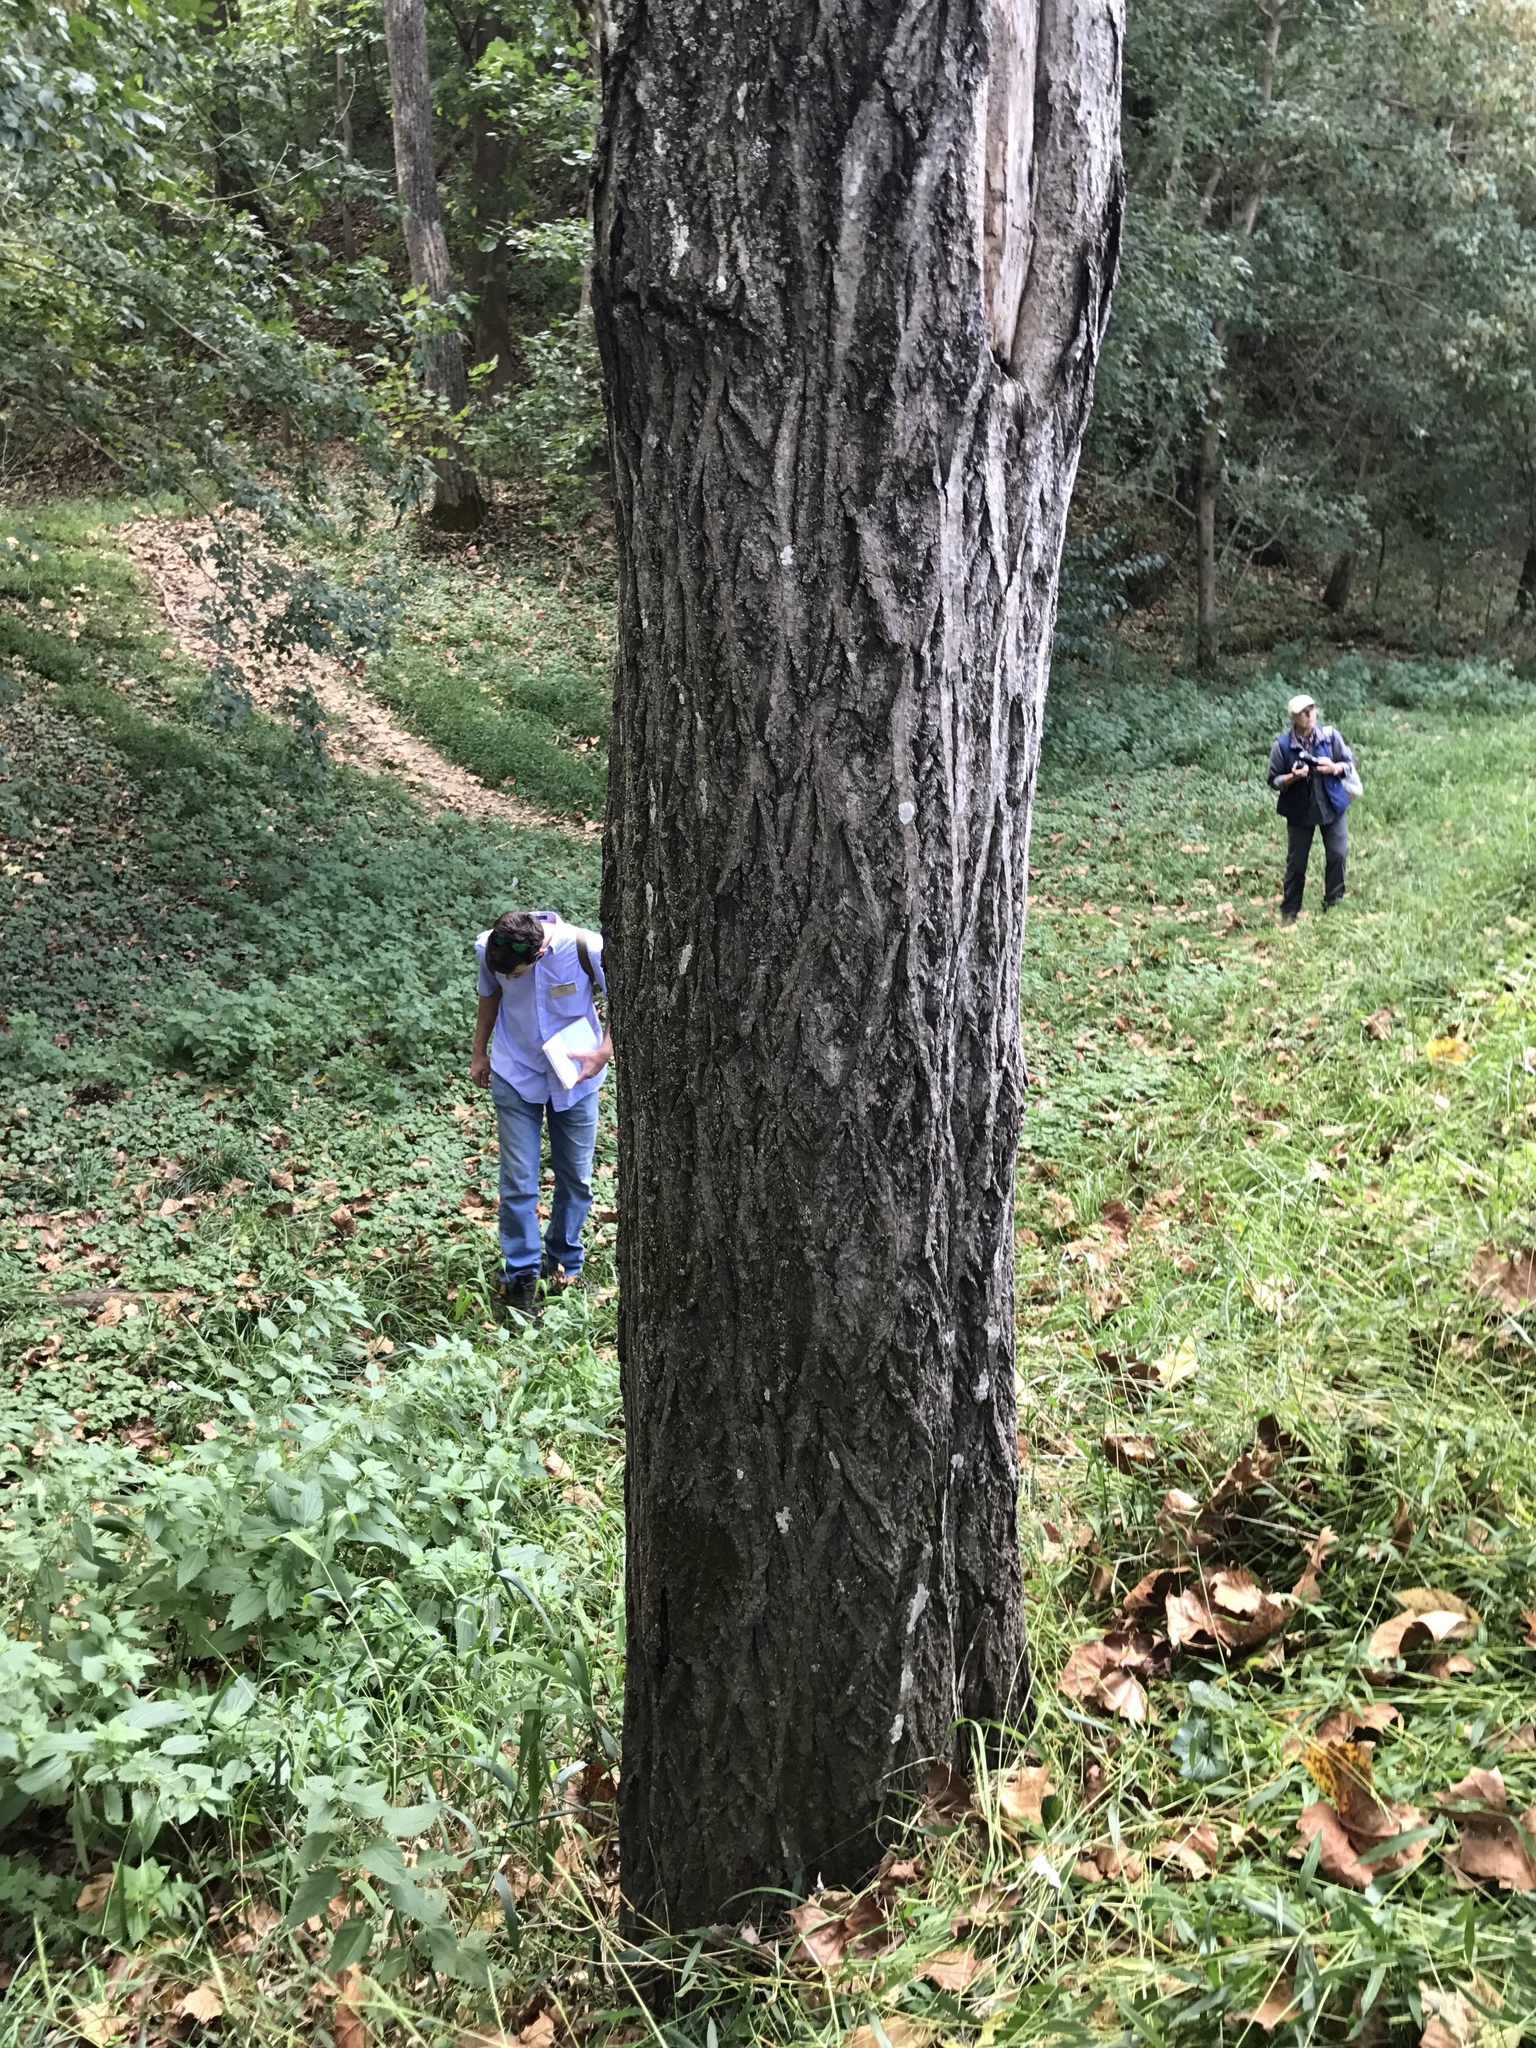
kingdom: Plantae
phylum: Tracheophyta
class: Magnoliopsida
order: Fagales
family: Juglandaceae
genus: Juglans
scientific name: Juglans cinerea
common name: Butternut
